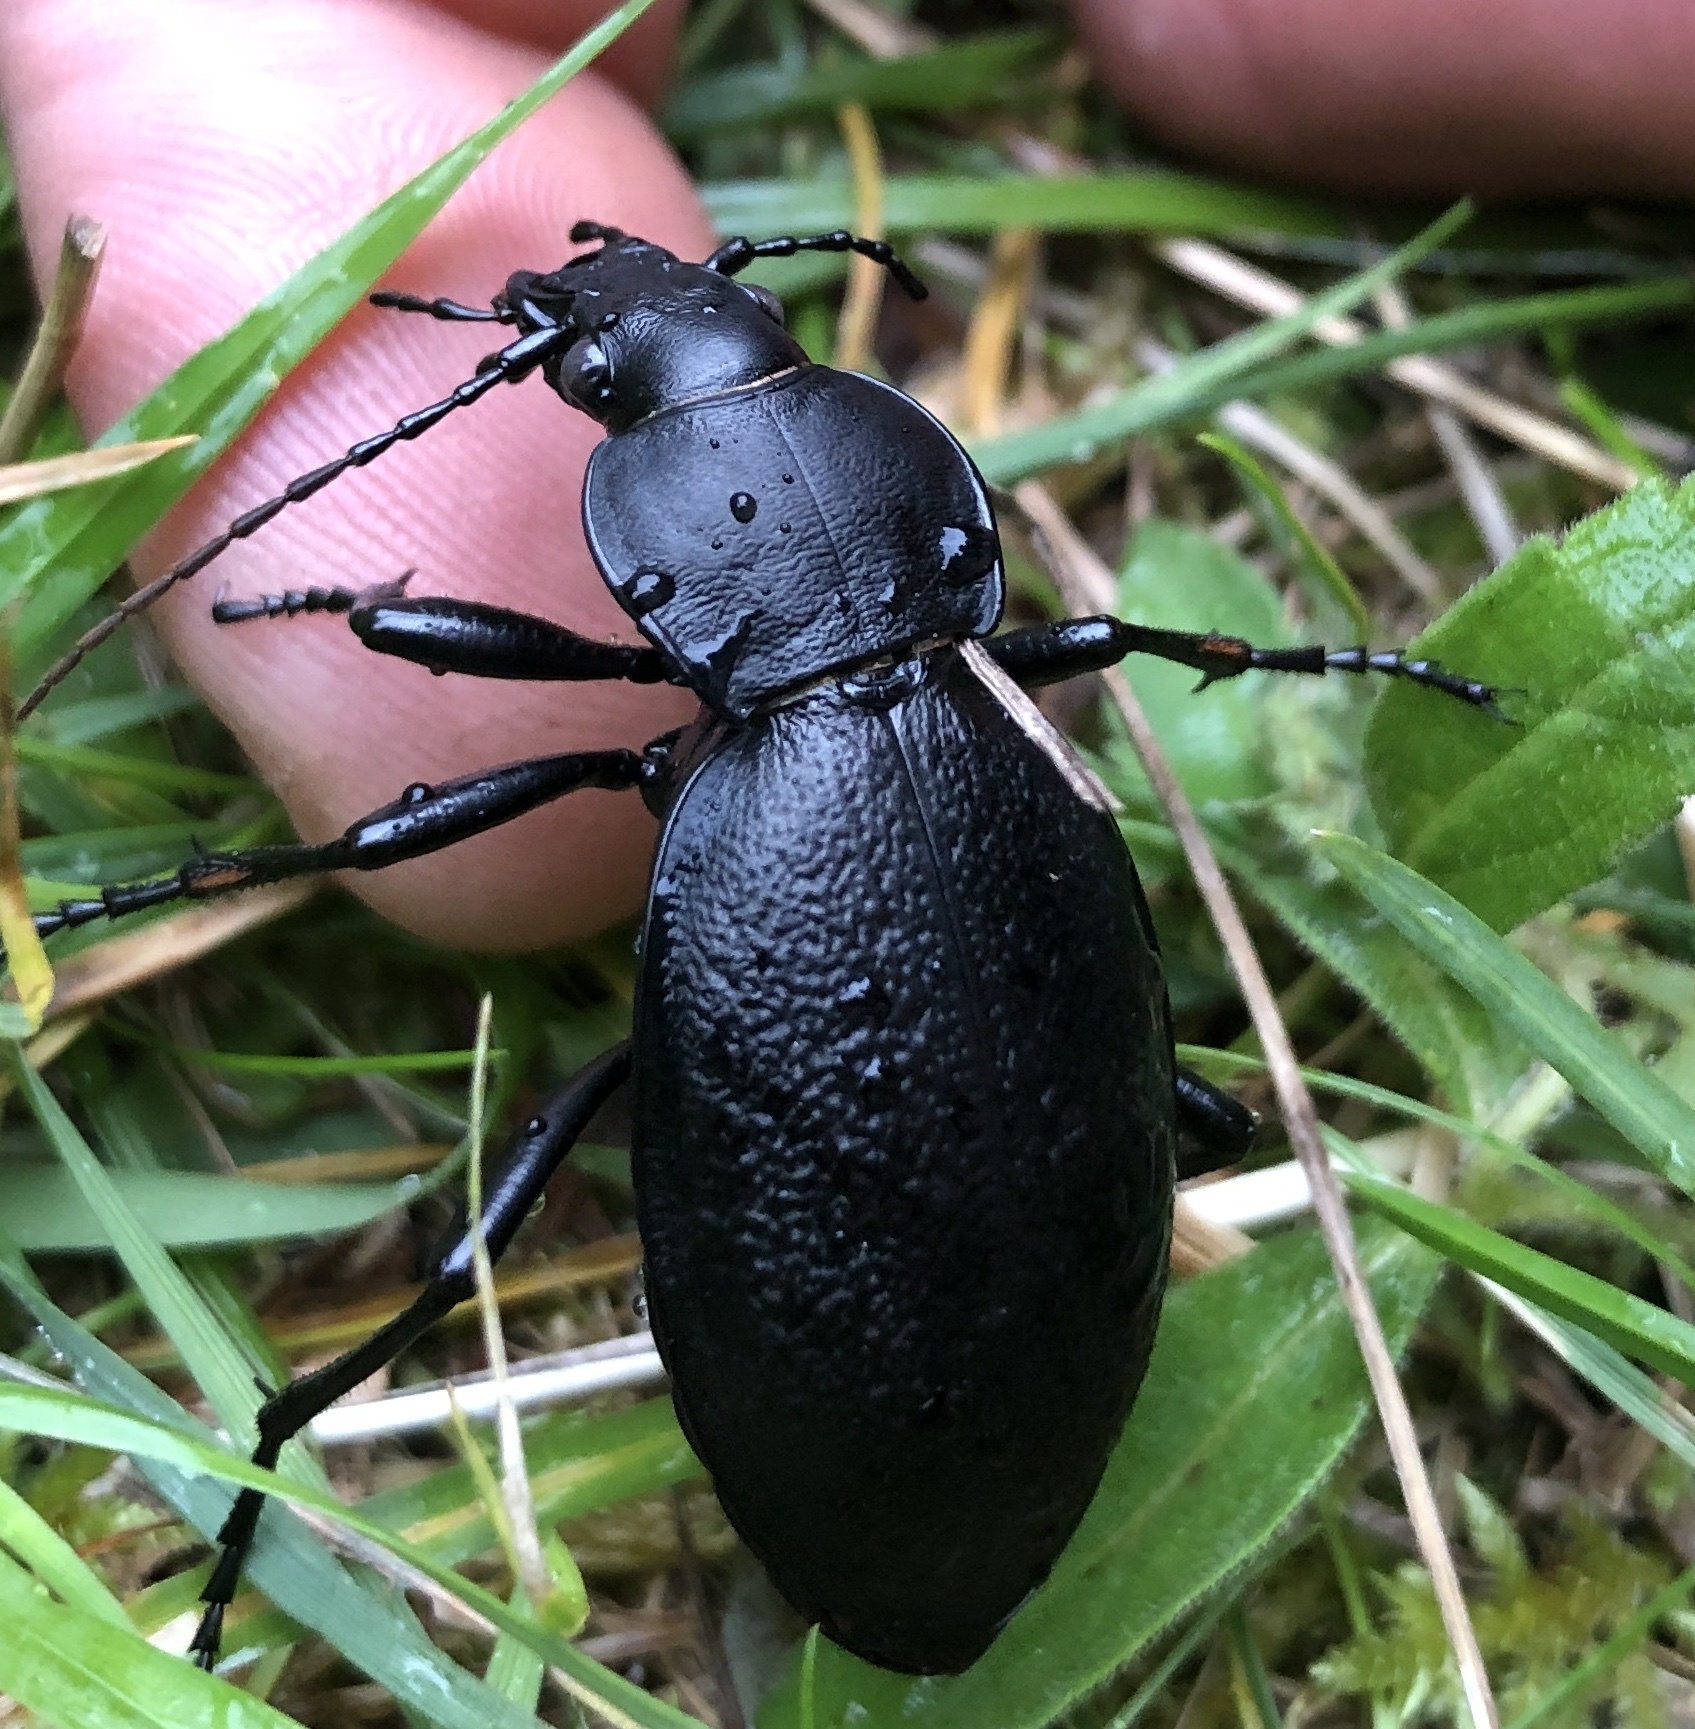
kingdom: Animalia
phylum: Arthropoda
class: Insecta
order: Coleoptera
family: Carabidae
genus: Carabus
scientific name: Carabus coriaceus
